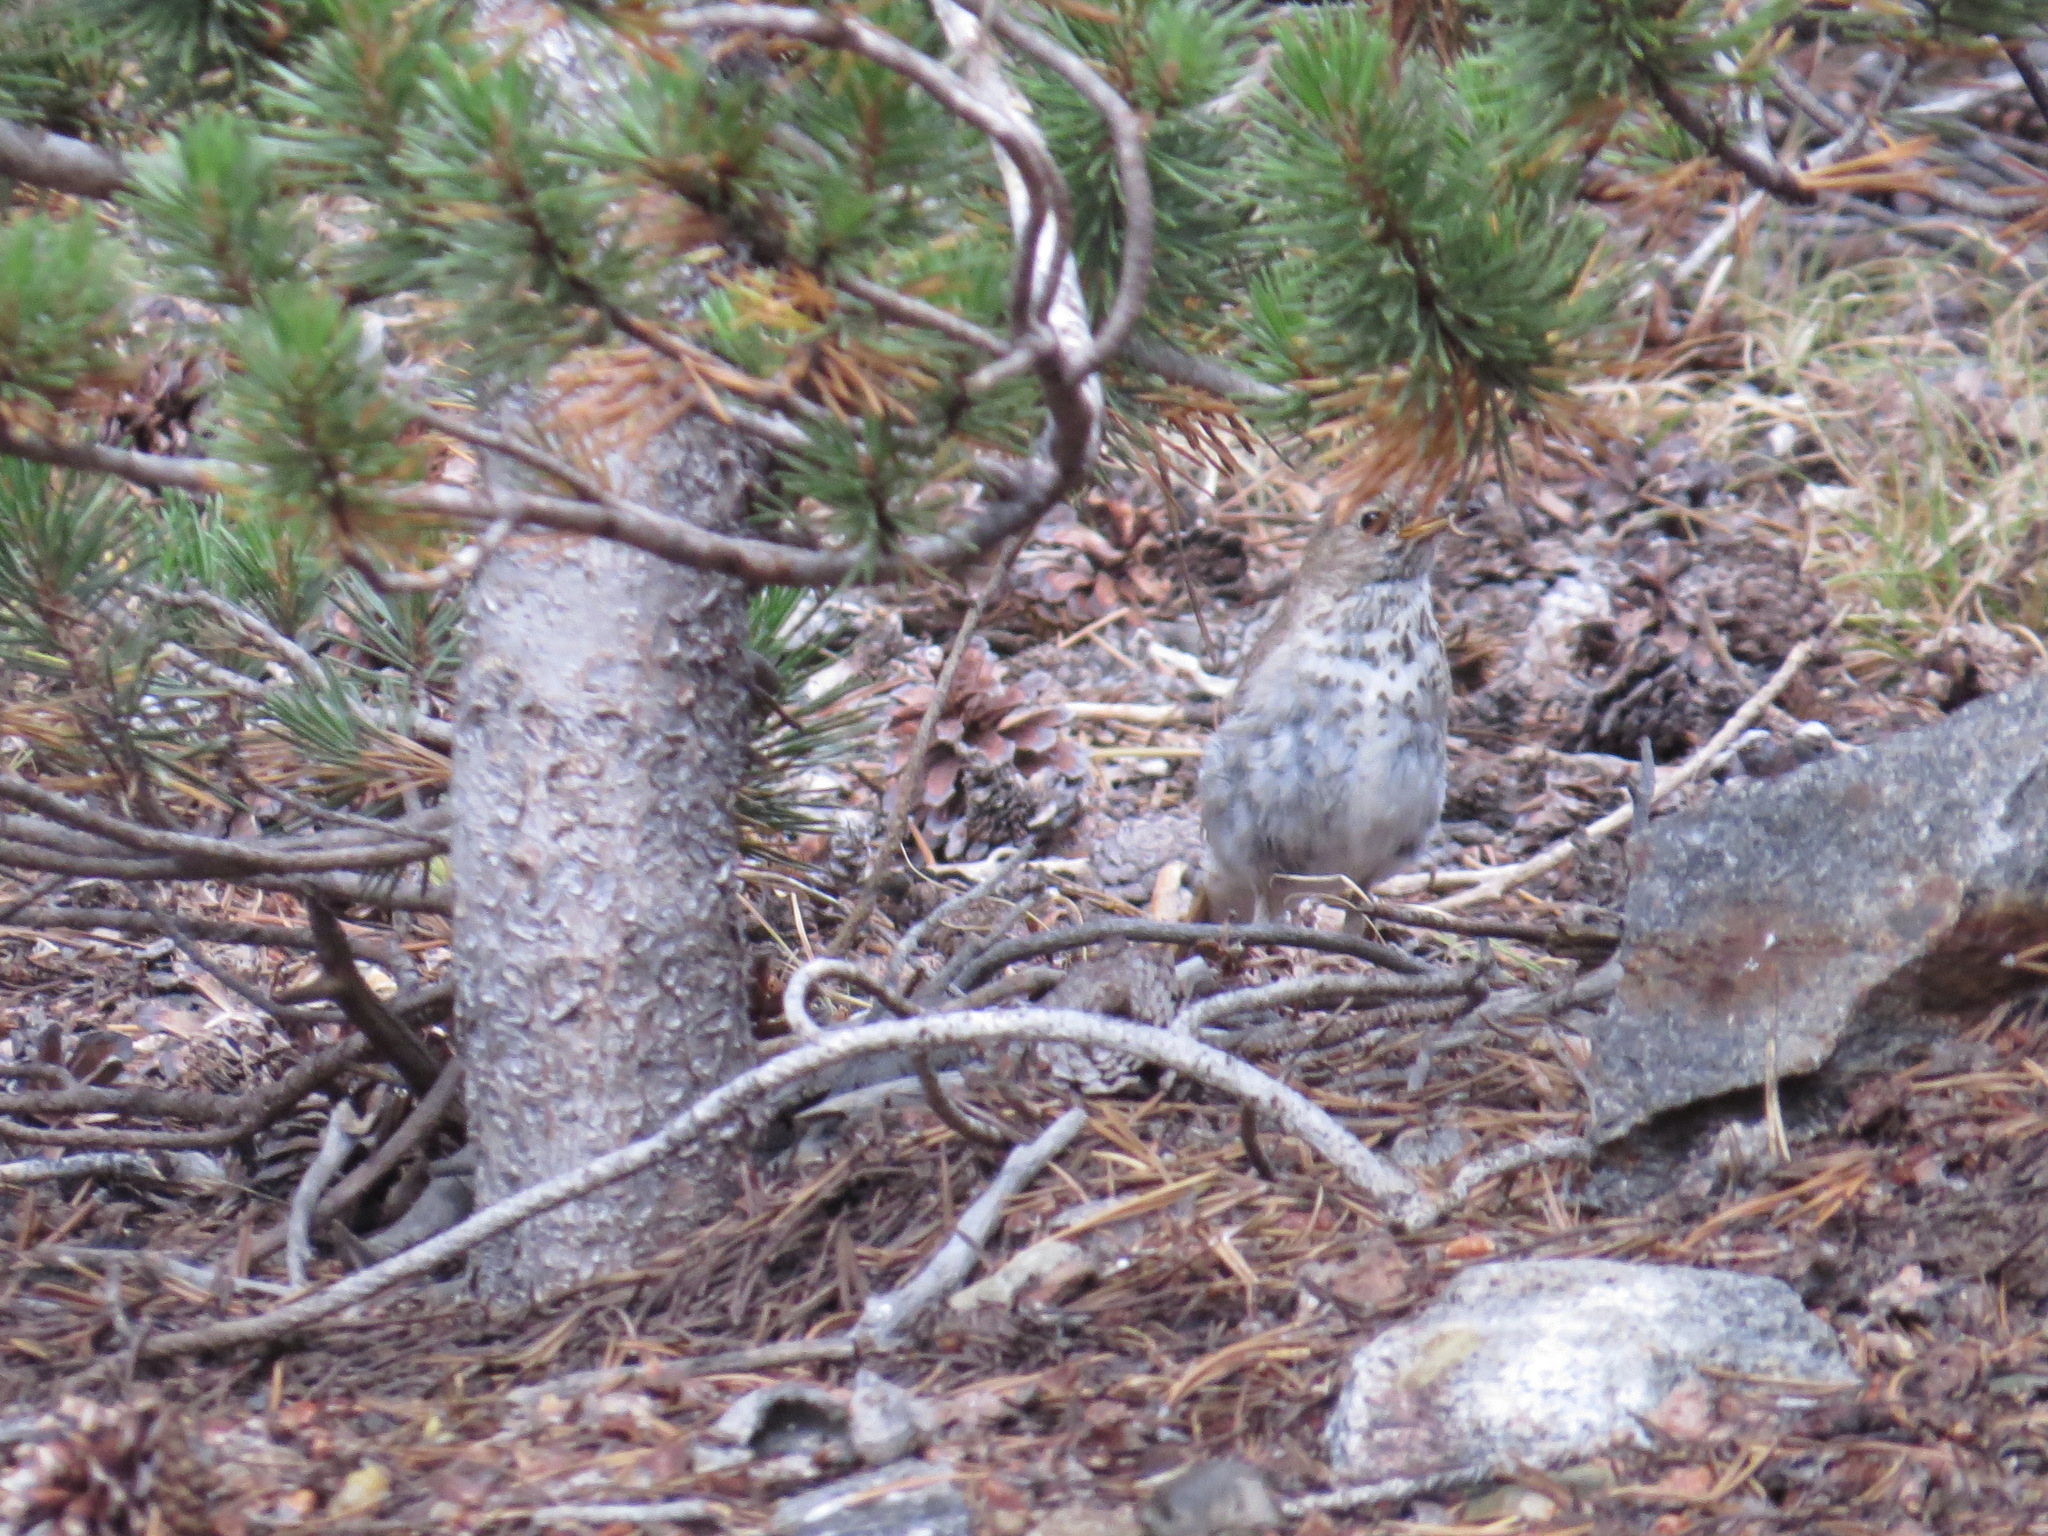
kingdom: Animalia
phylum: Chordata
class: Aves
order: Passeriformes
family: Turdidae
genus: Catharus
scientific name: Catharus guttatus
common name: Hermit thrush
